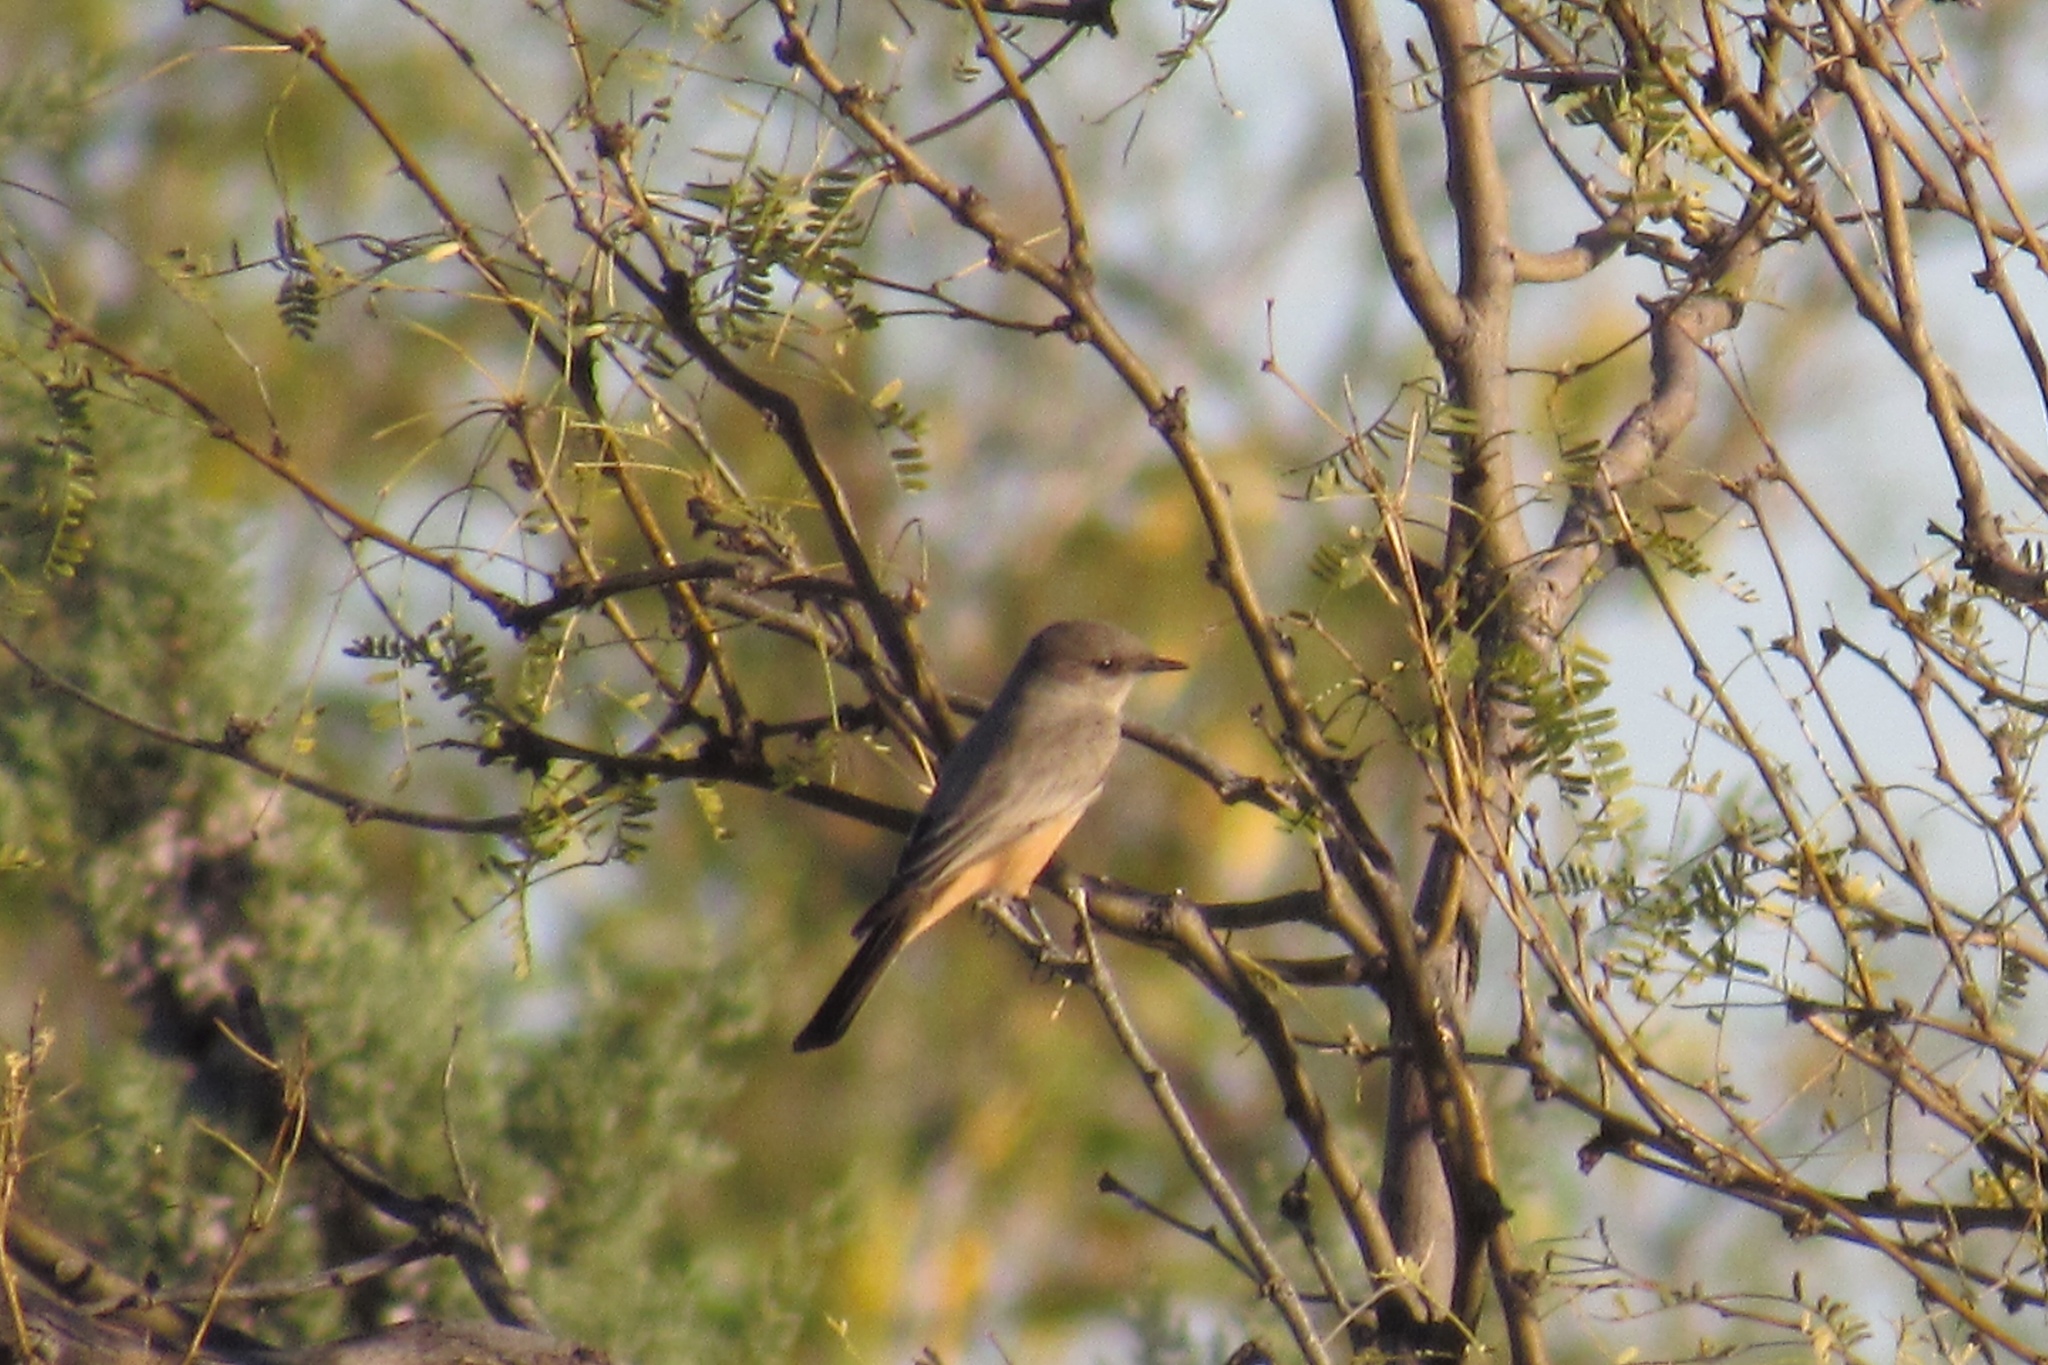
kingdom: Animalia
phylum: Chordata
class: Aves
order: Passeriformes
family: Tyrannidae
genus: Sayornis
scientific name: Sayornis saya
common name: Say's phoebe
